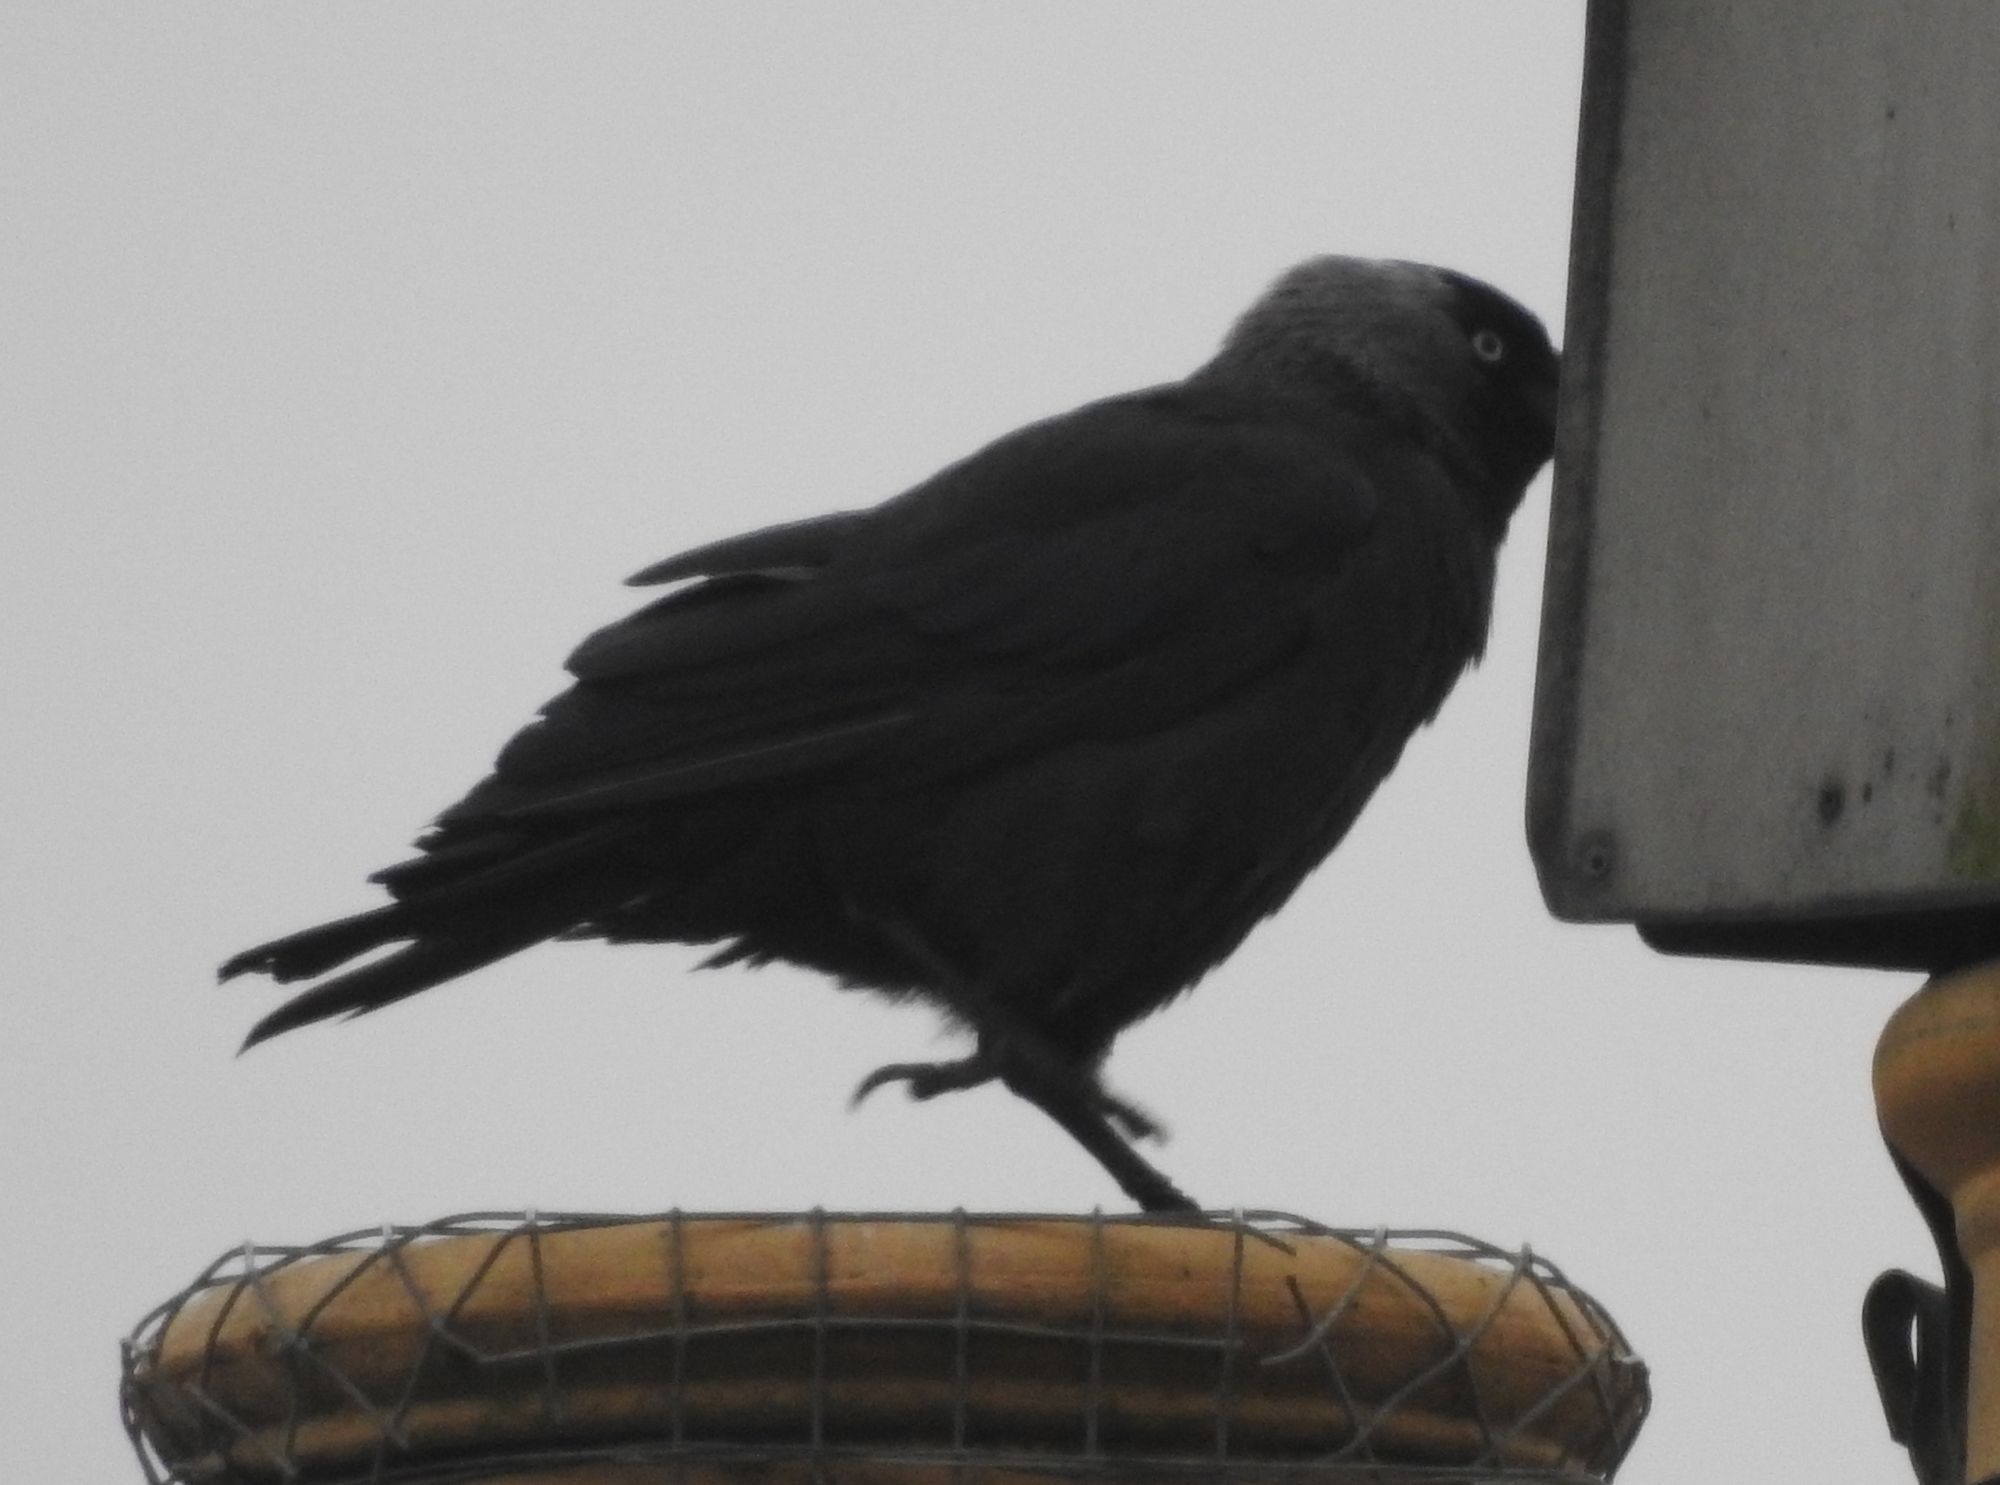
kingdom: Animalia
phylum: Chordata
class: Aves
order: Passeriformes
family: Corvidae
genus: Coloeus
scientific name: Coloeus monedula
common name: Western jackdaw
